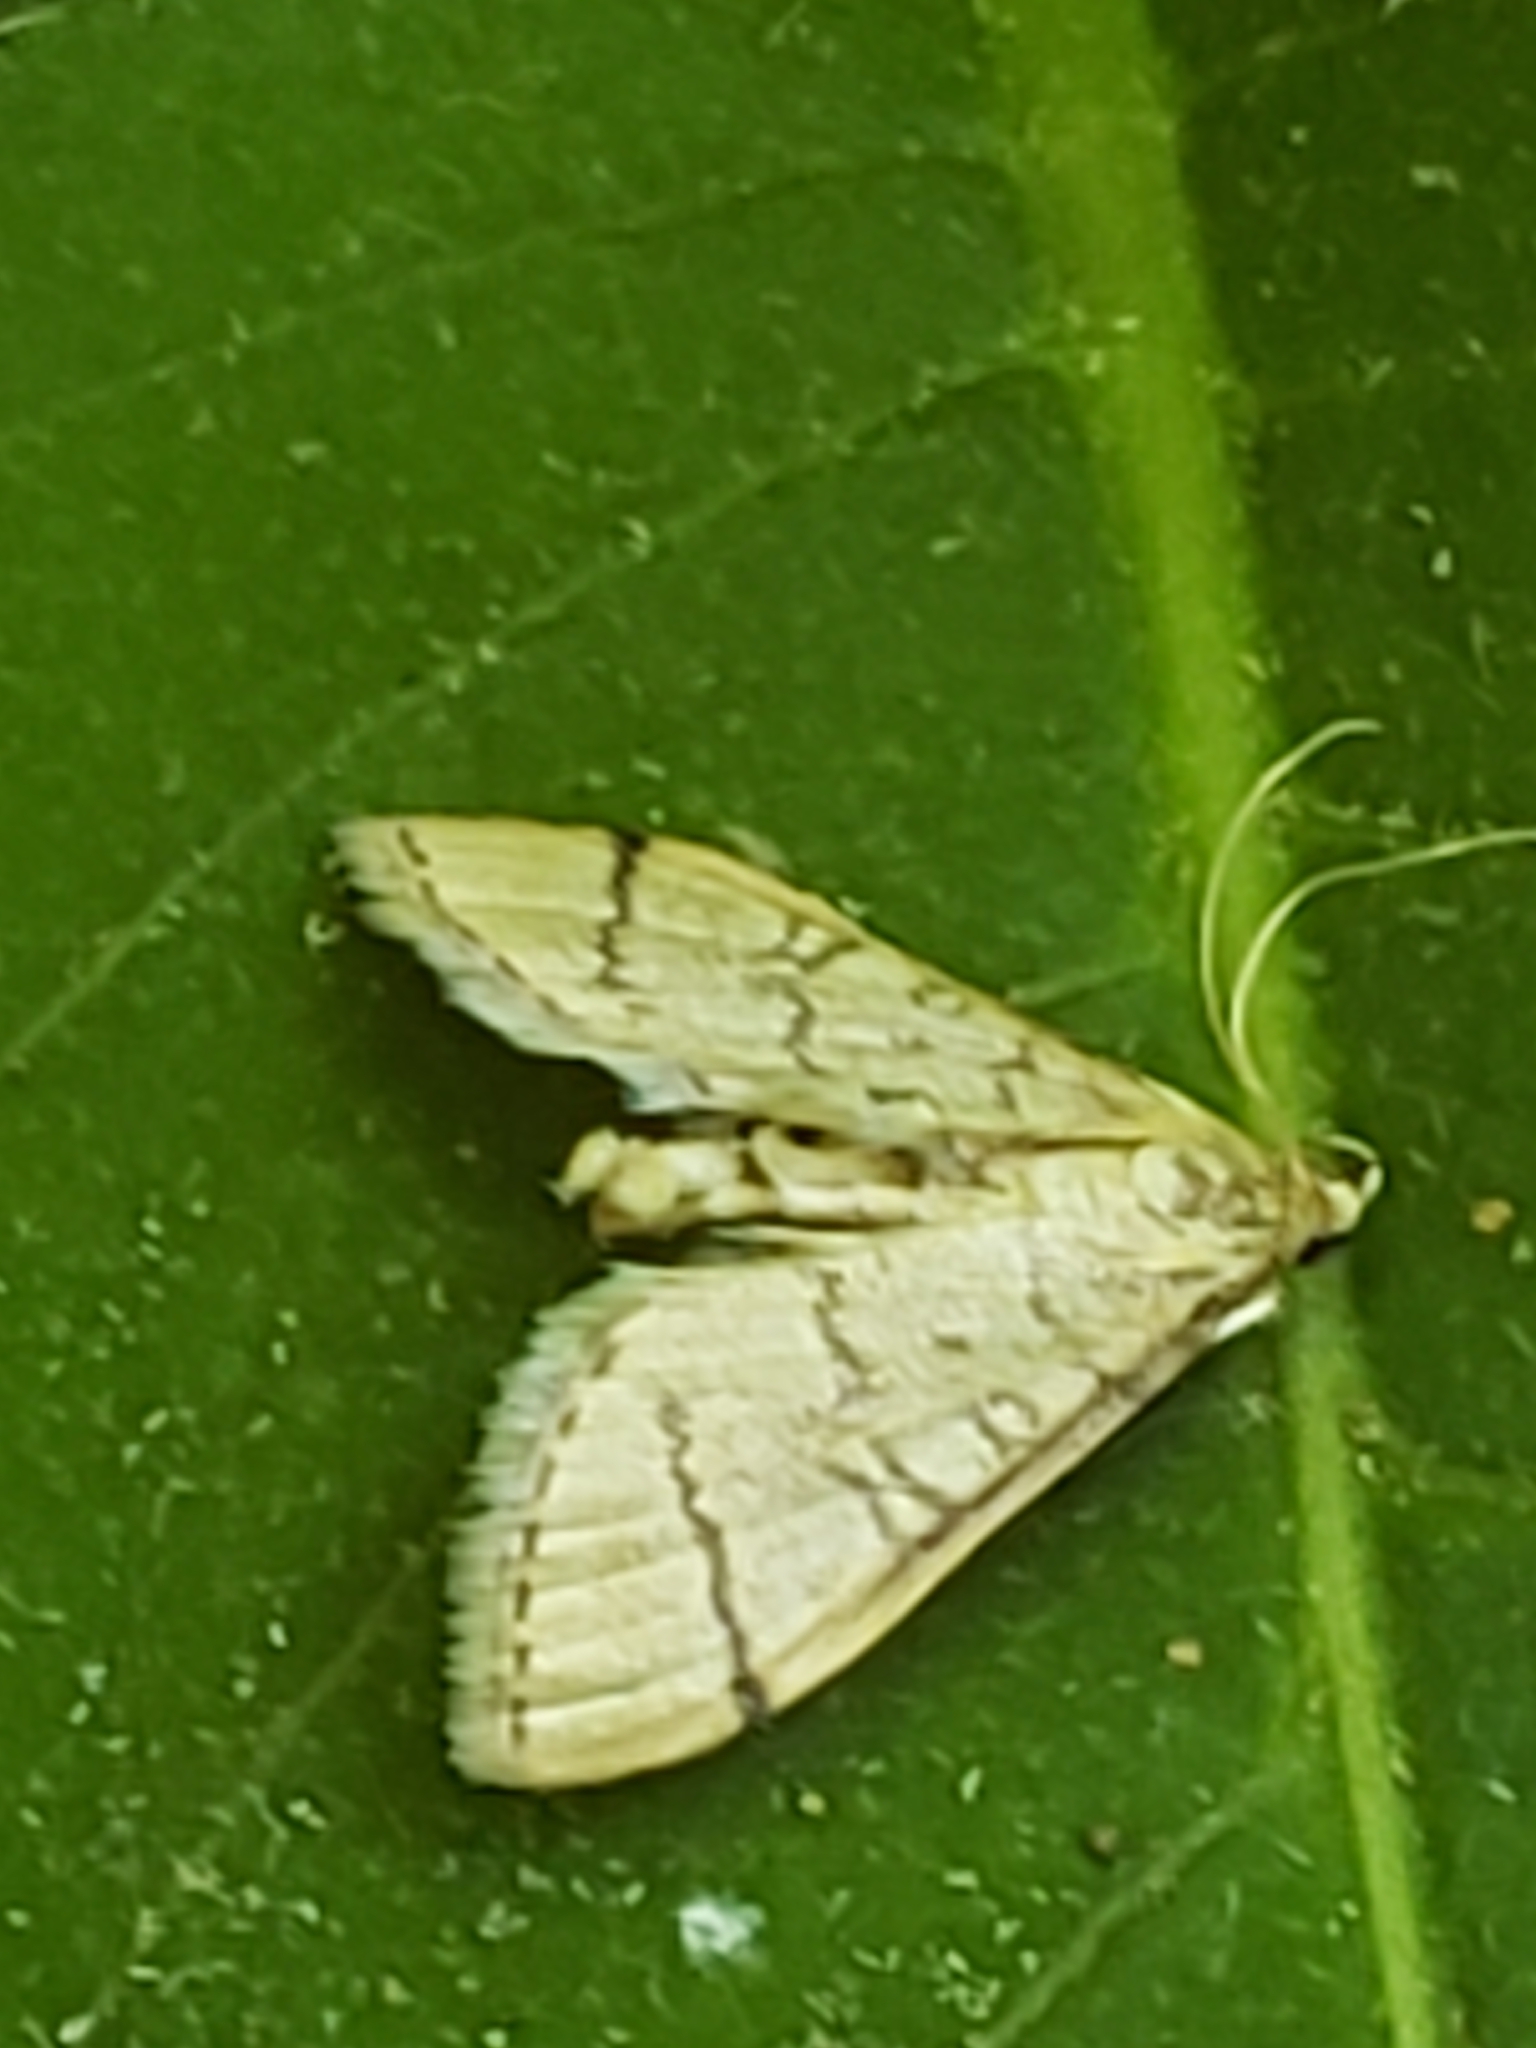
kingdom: Animalia
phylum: Arthropoda
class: Insecta
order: Lepidoptera
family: Crambidae
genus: Lamprosema
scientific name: Lamprosema Blepharomastix ranalis
